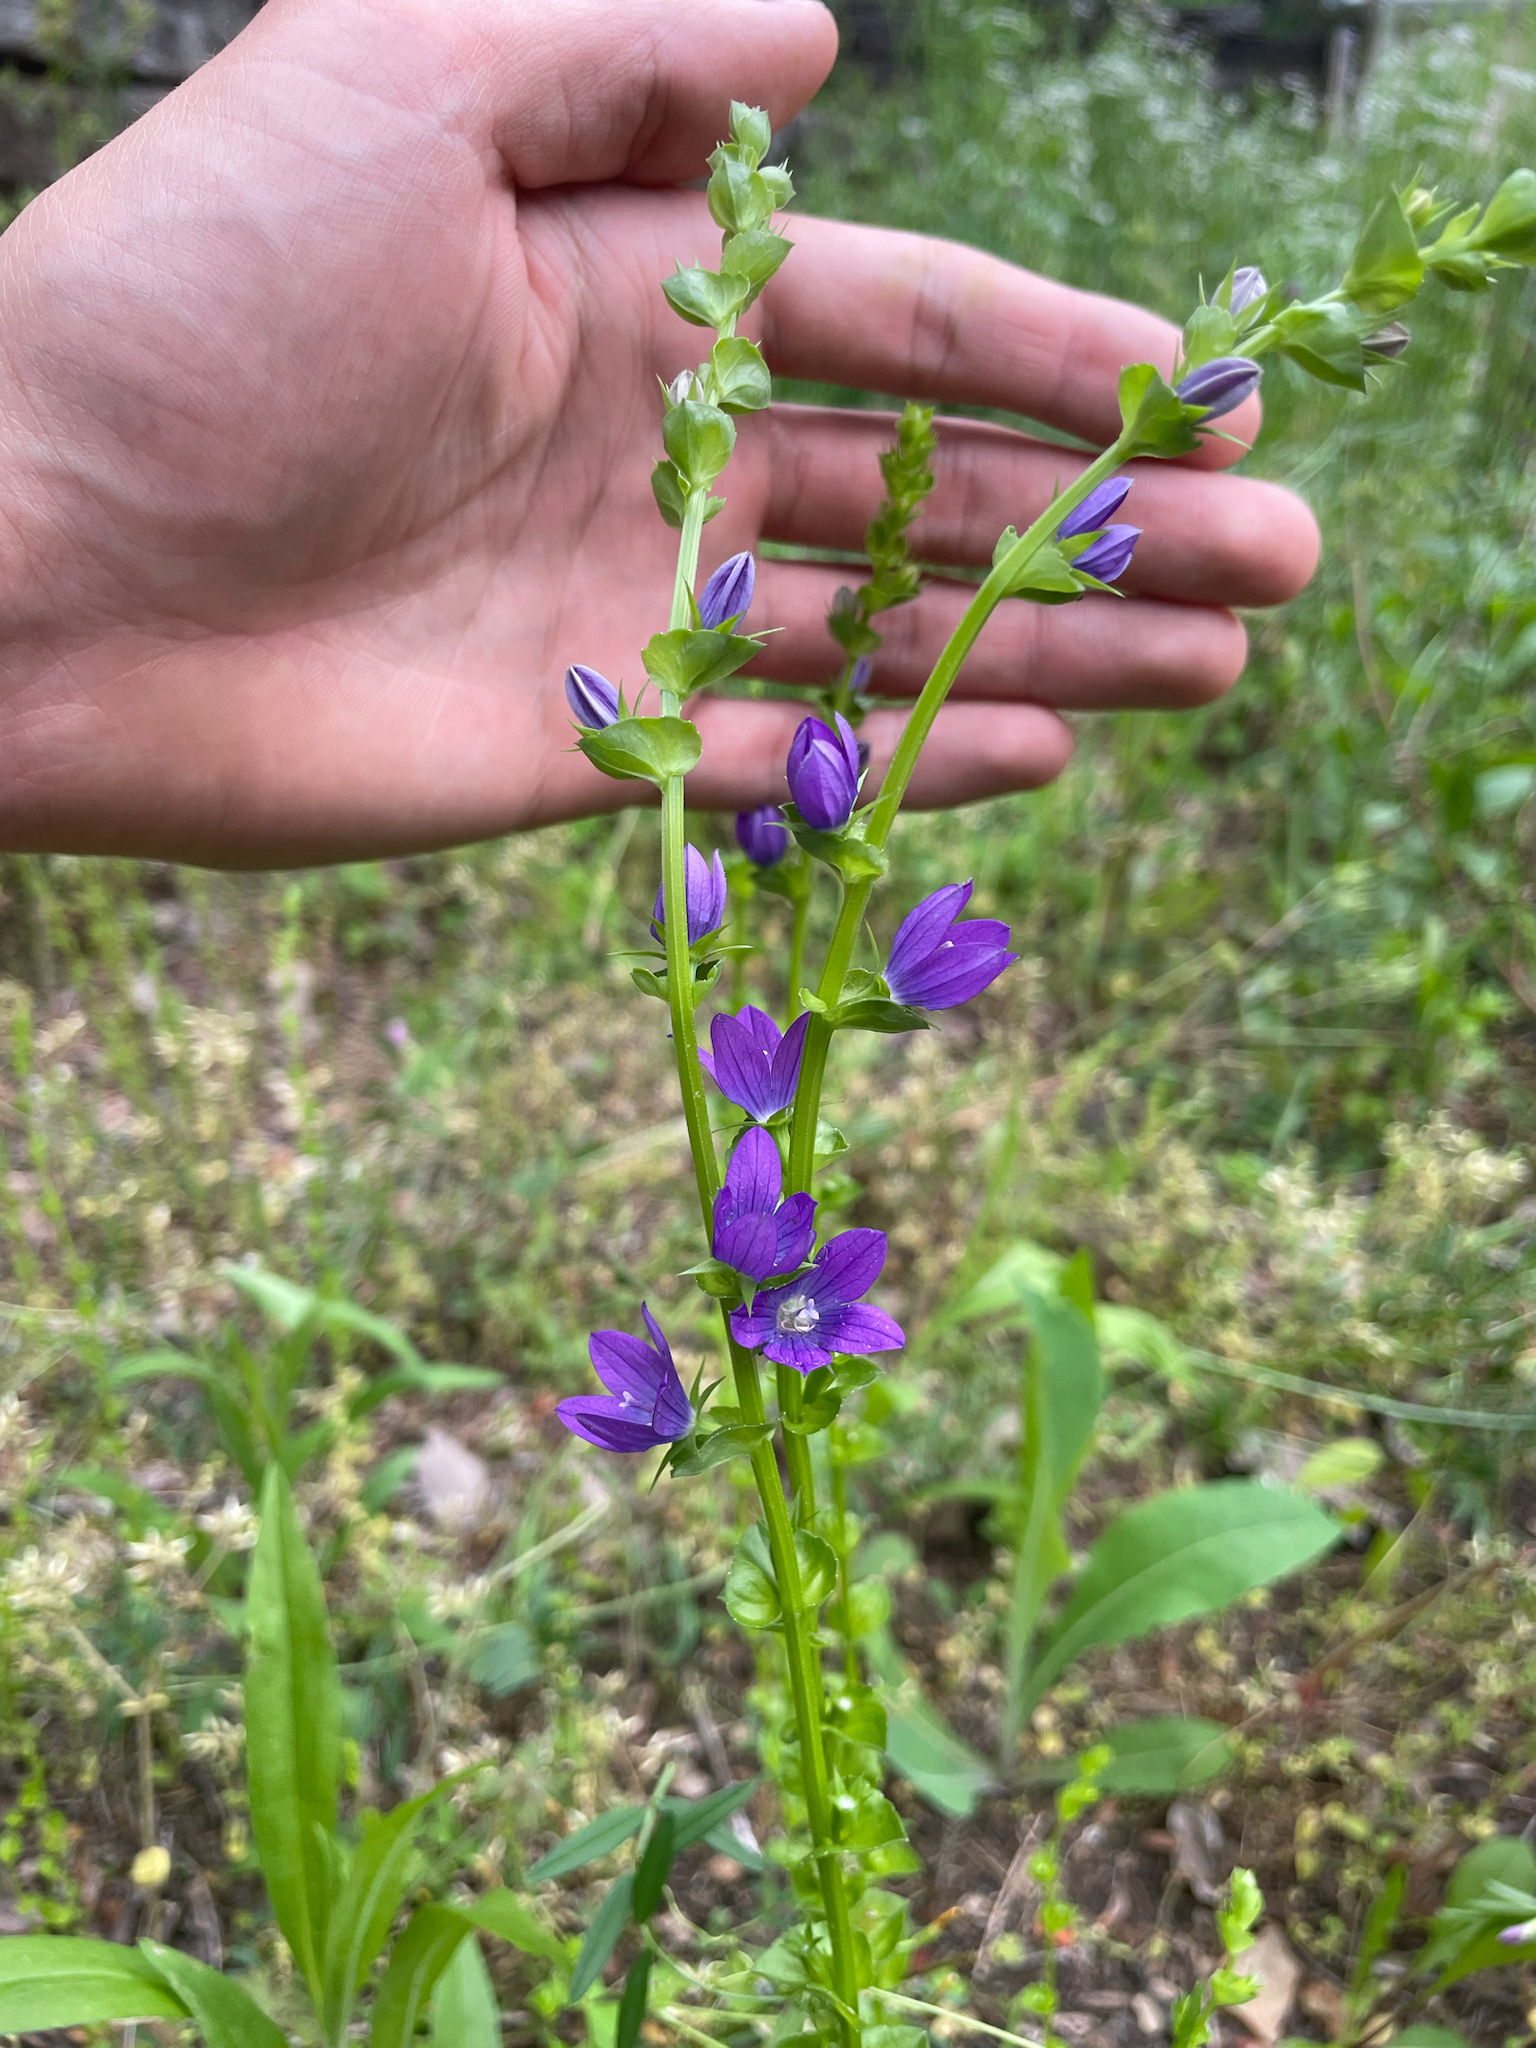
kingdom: Plantae
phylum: Tracheophyta
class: Magnoliopsida
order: Asterales
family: Campanulaceae
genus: Triodanis
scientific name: Triodanis perfoliata
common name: Clasping venus' looking-glass
